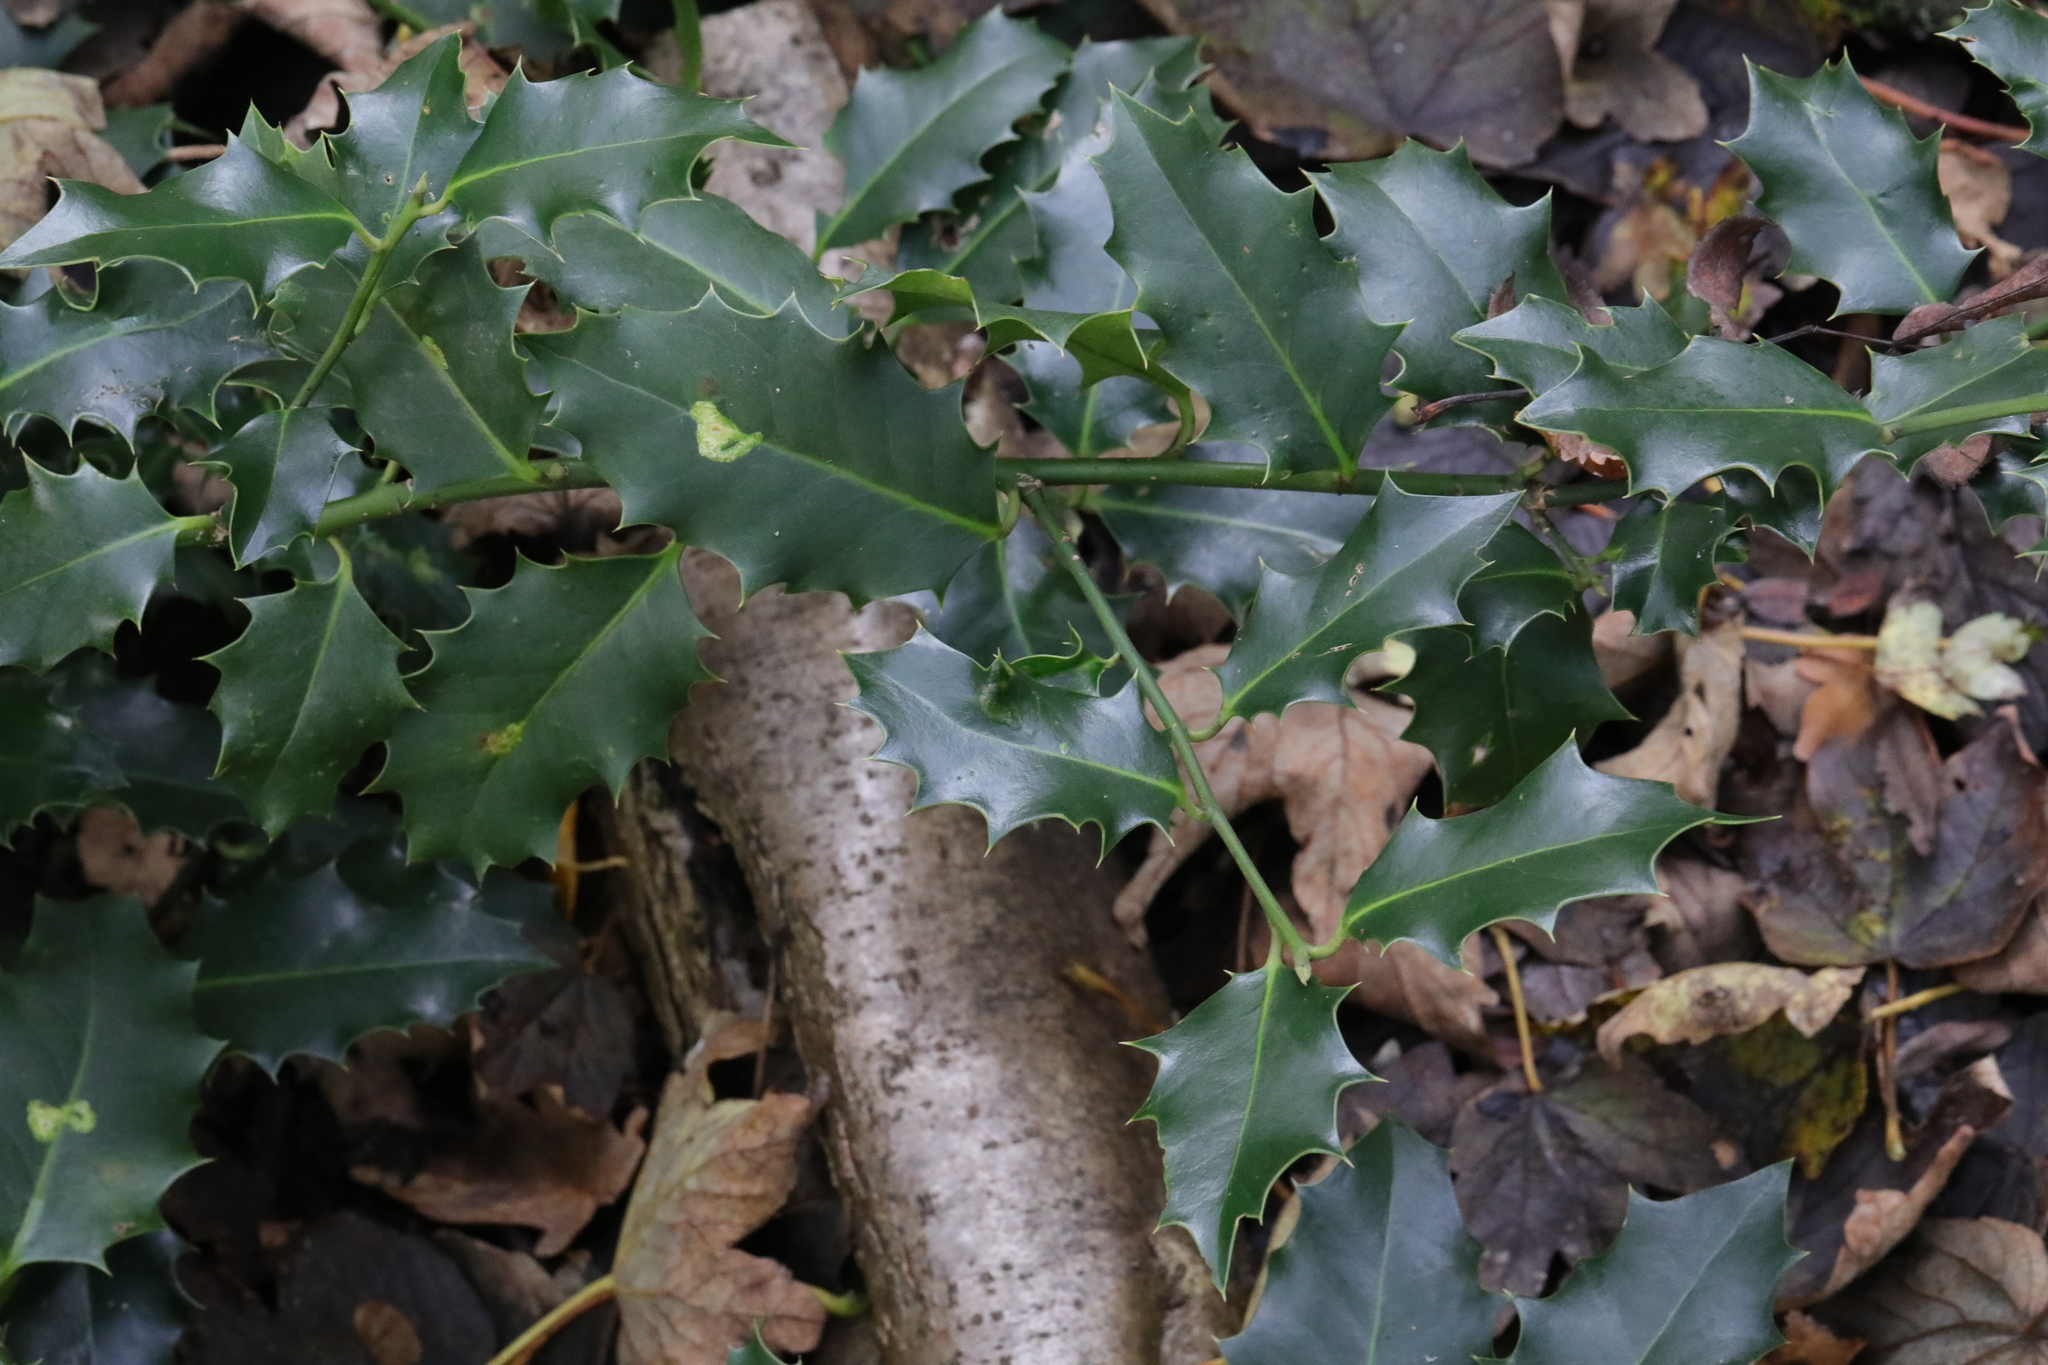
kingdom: Plantae
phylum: Tracheophyta
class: Magnoliopsida
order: Aquifoliales
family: Aquifoliaceae
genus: Ilex
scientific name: Ilex aquifolium
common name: English holly
